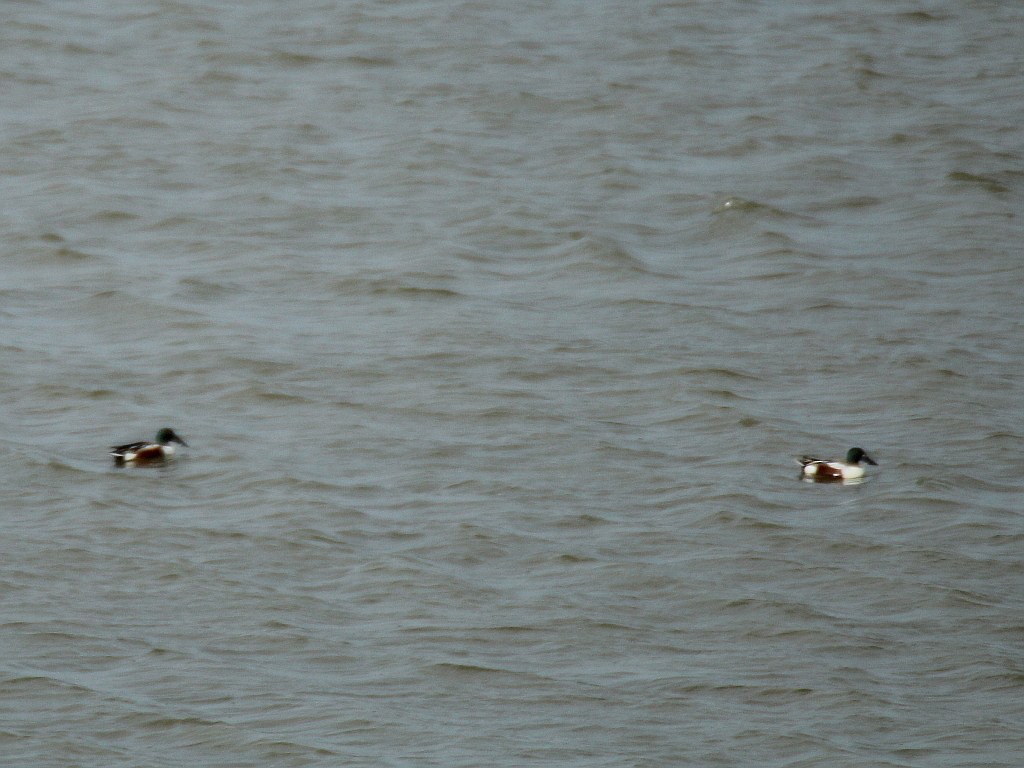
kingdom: Animalia
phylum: Chordata
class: Aves
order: Anseriformes
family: Anatidae
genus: Spatula
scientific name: Spatula clypeata
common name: Northern shoveler
